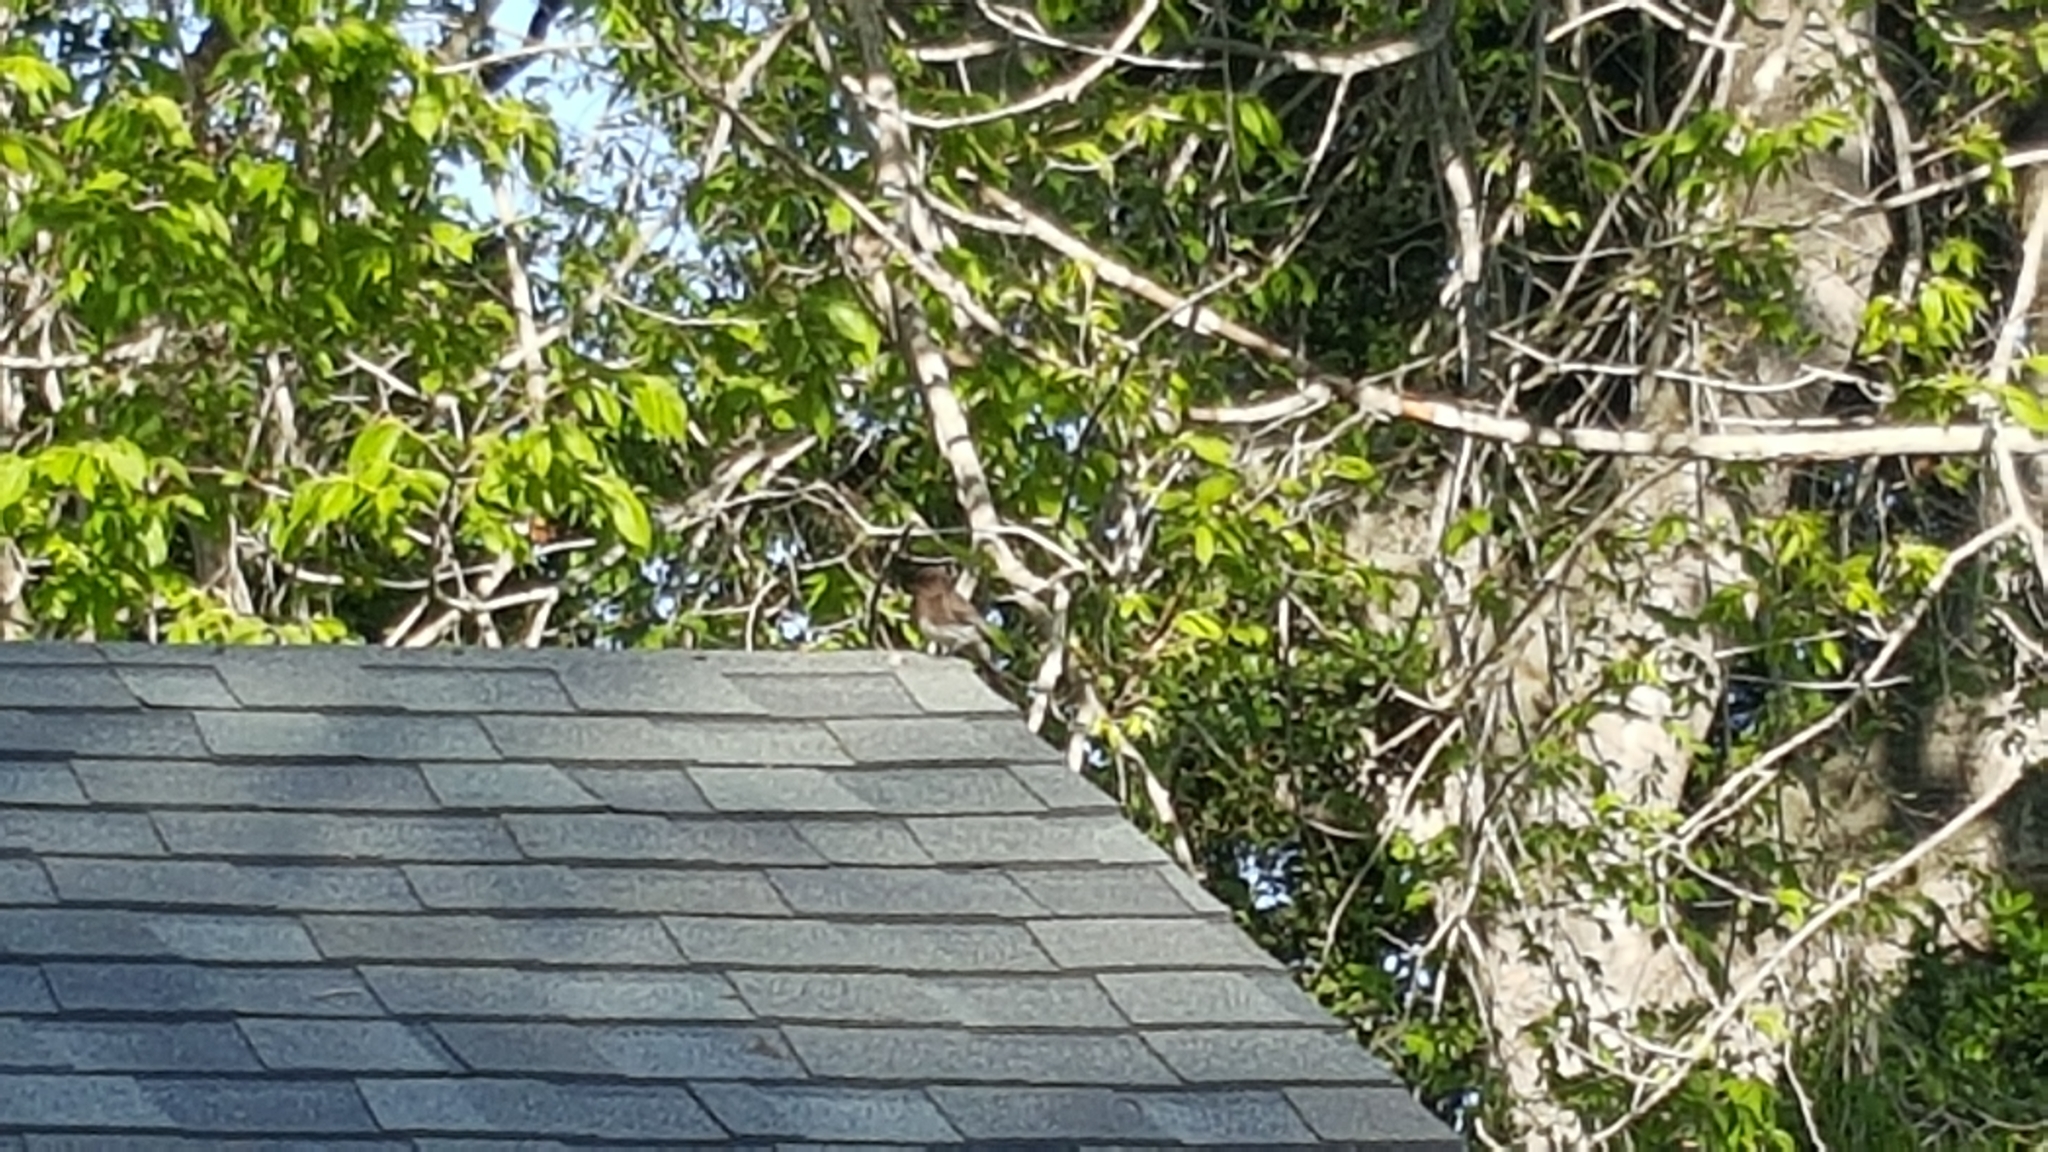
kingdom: Animalia
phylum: Chordata
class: Aves
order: Passeriformes
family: Tyrannidae
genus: Sayornis
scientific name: Sayornis nigricans
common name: Black phoebe
